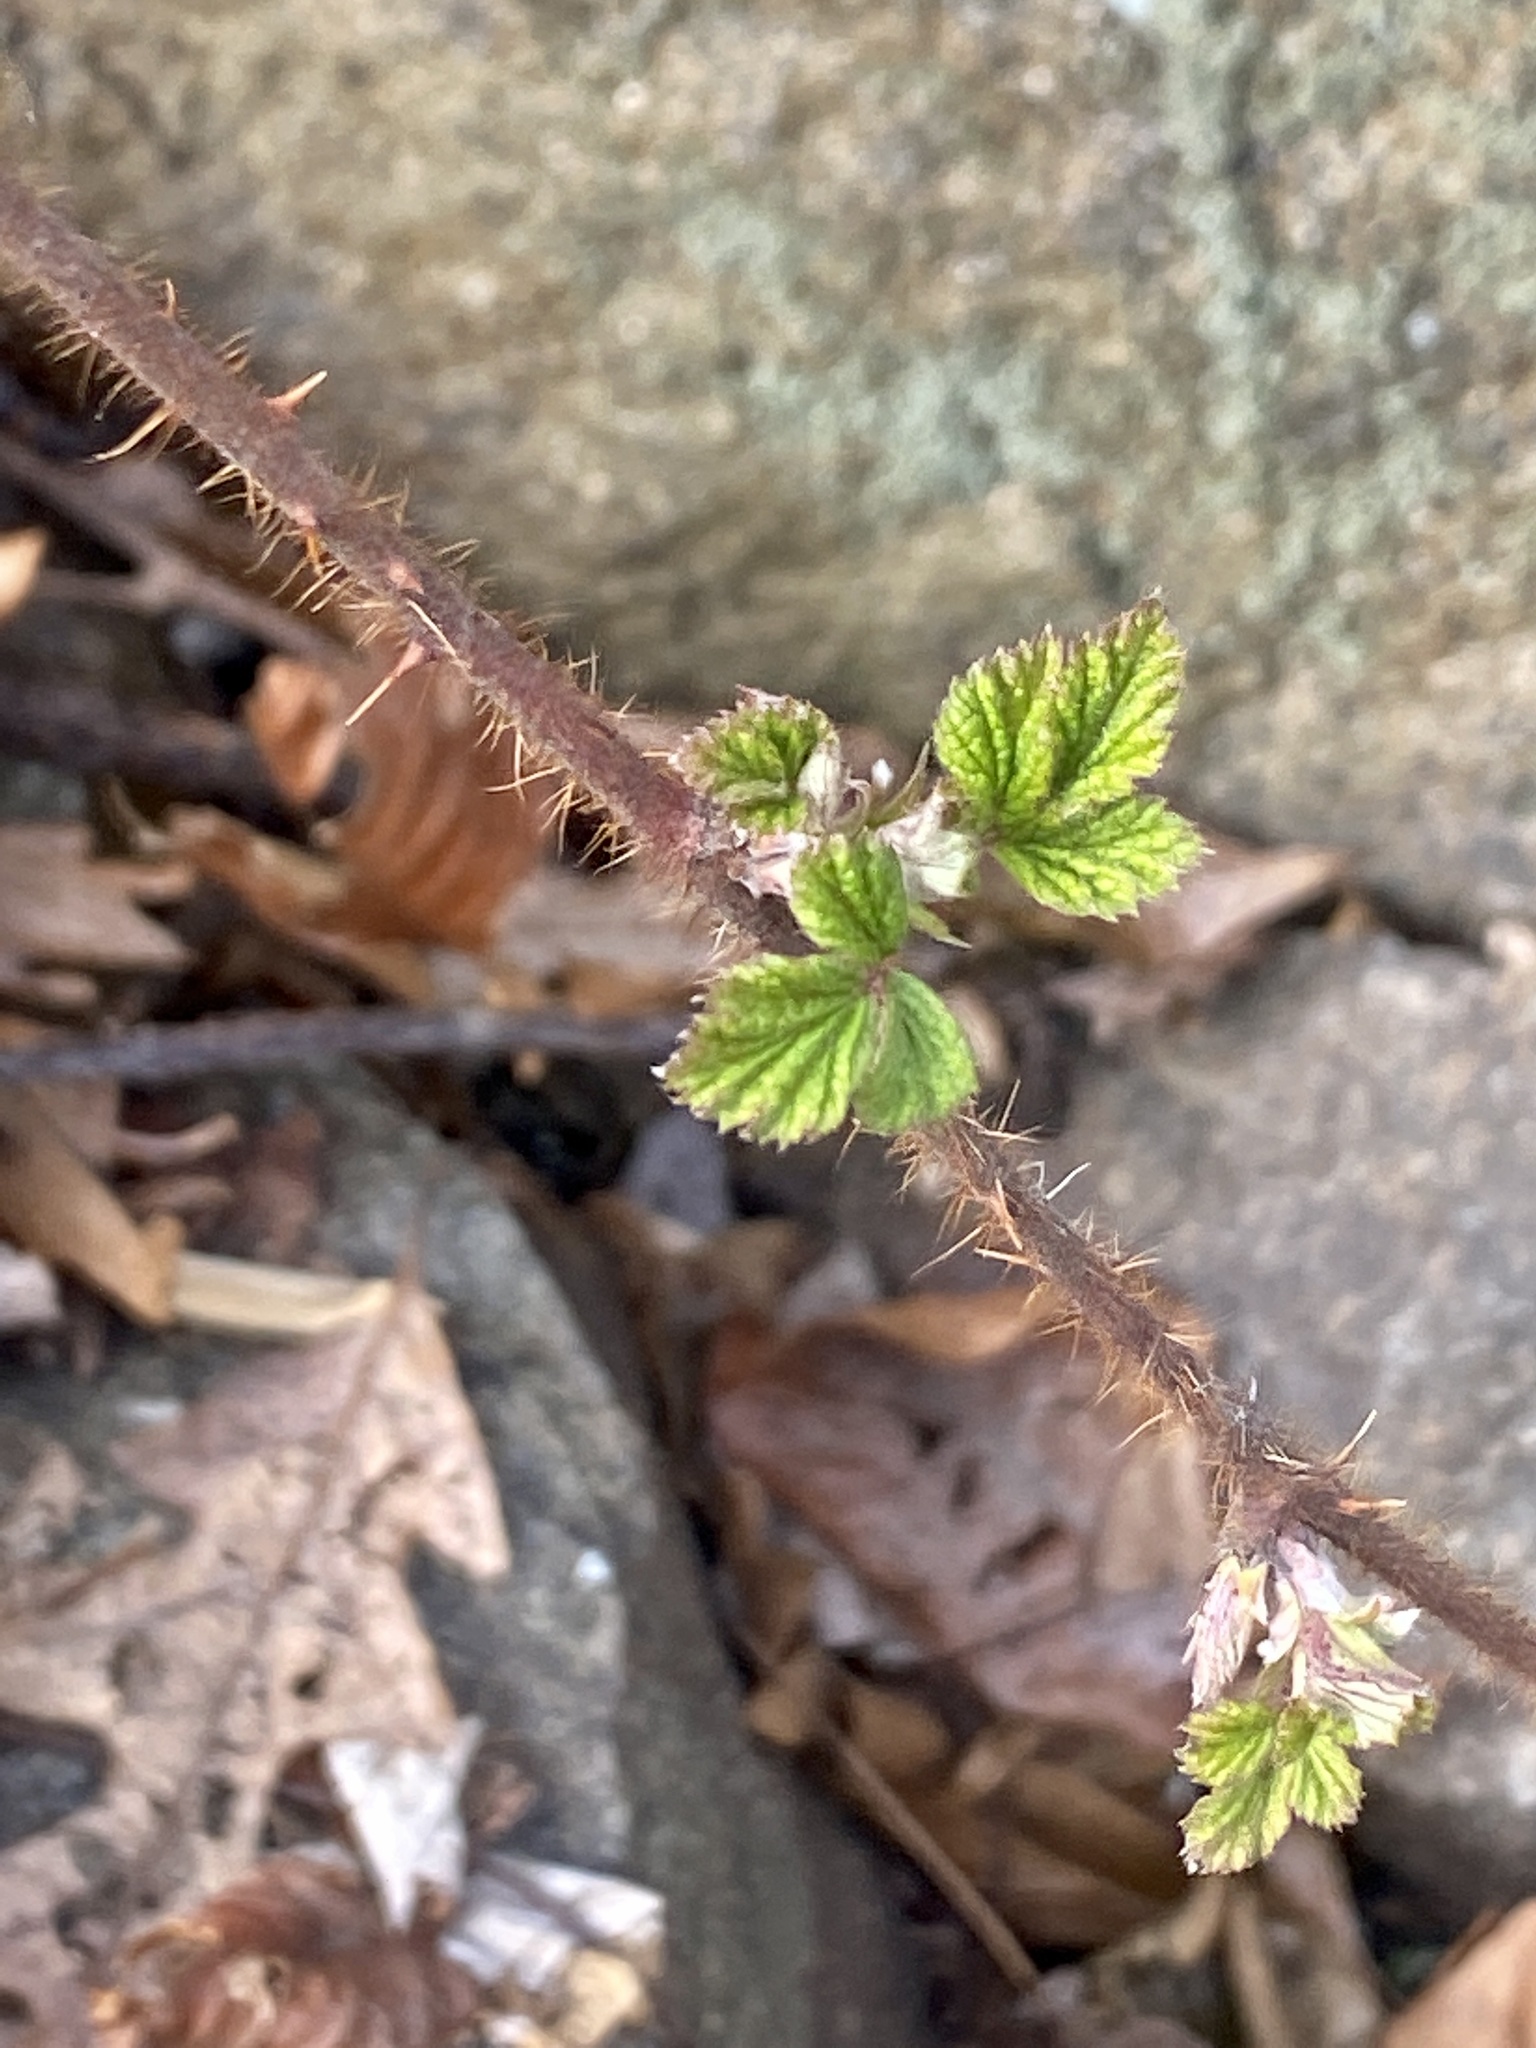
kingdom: Plantae
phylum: Tracheophyta
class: Magnoliopsida
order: Rosales
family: Rosaceae
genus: Rubus
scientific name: Rubus phoenicolasius
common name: Japanese wineberry
